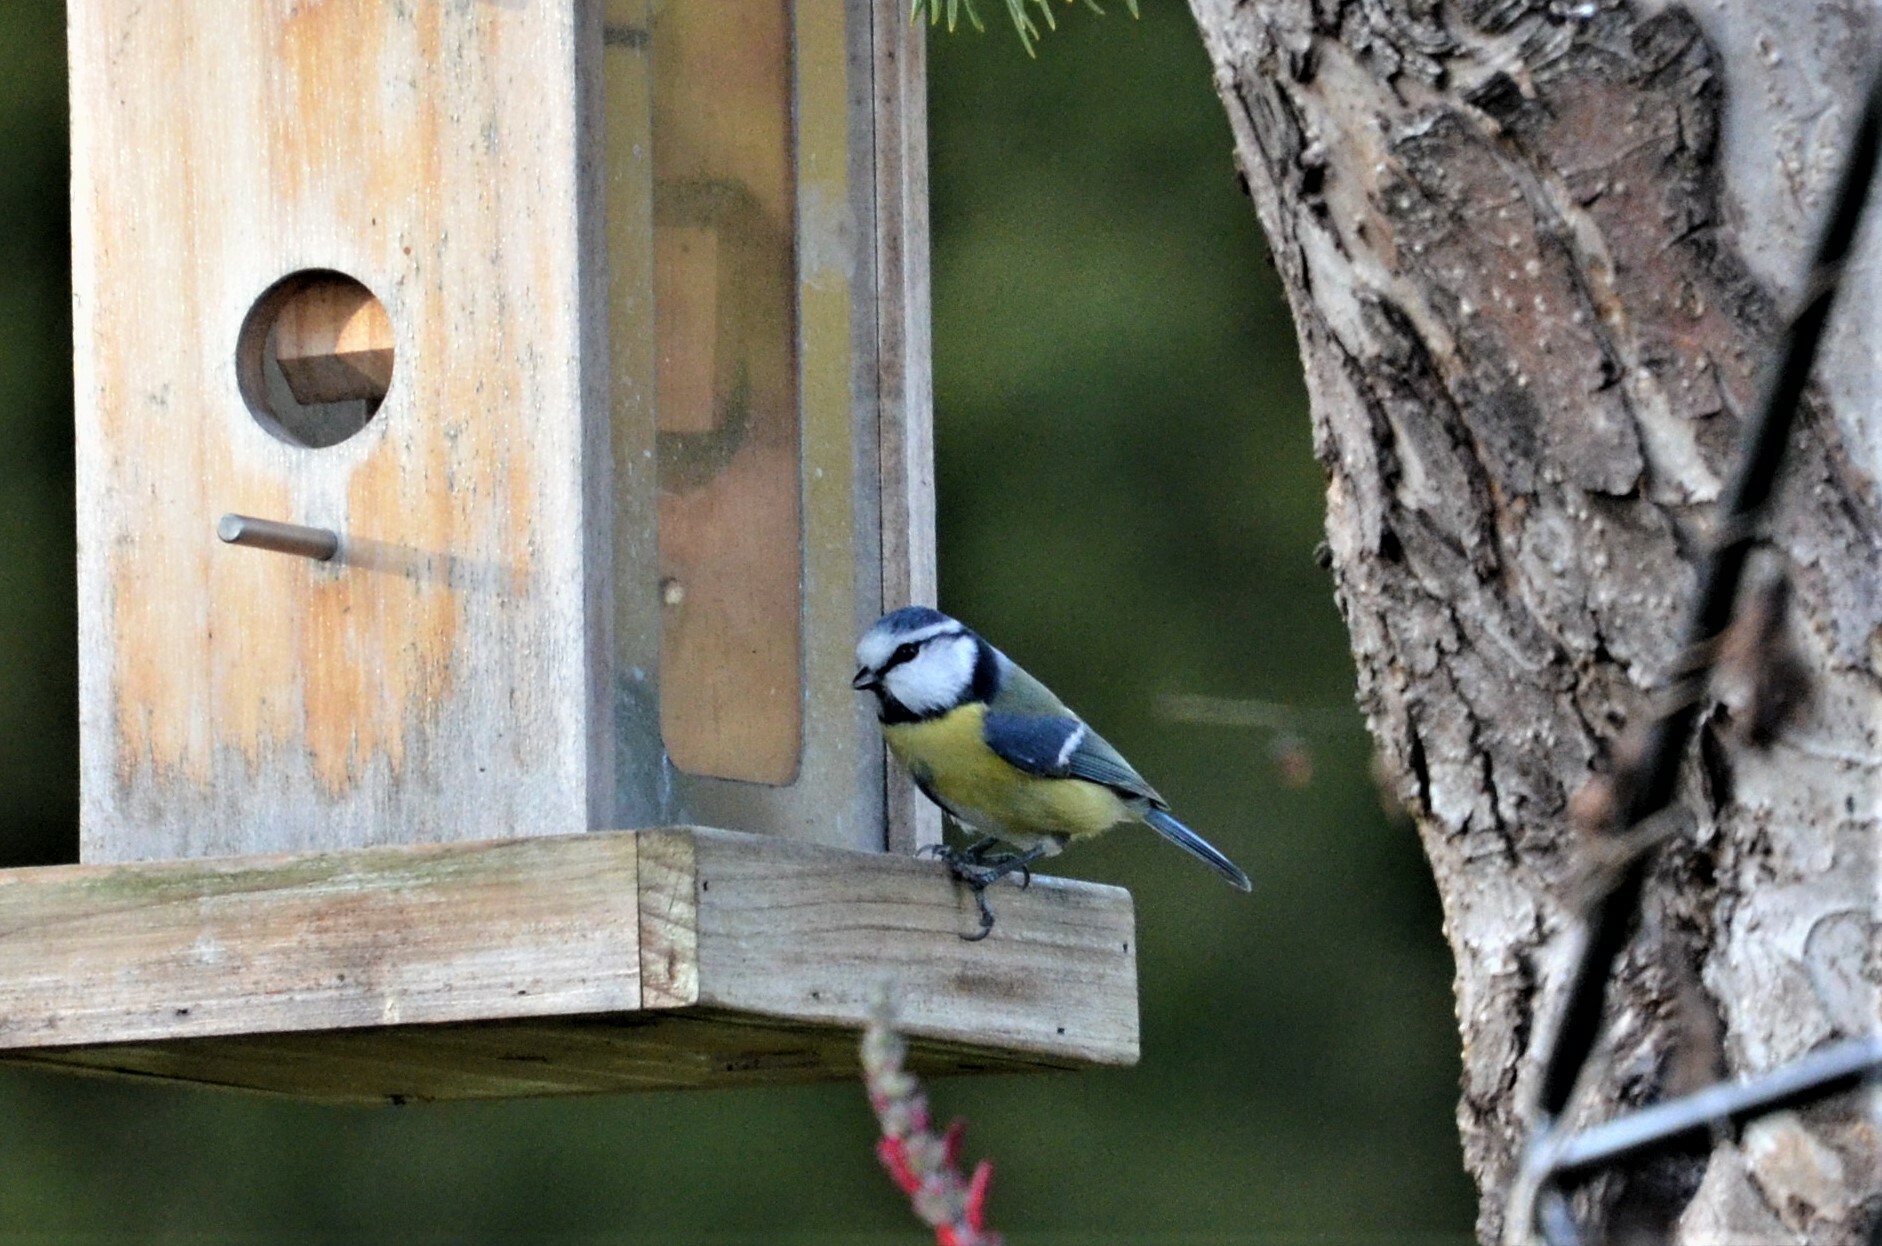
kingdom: Animalia
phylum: Chordata
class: Aves
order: Passeriformes
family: Paridae
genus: Cyanistes
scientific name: Cyanistes caeruleus
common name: Eurasian blue tit
